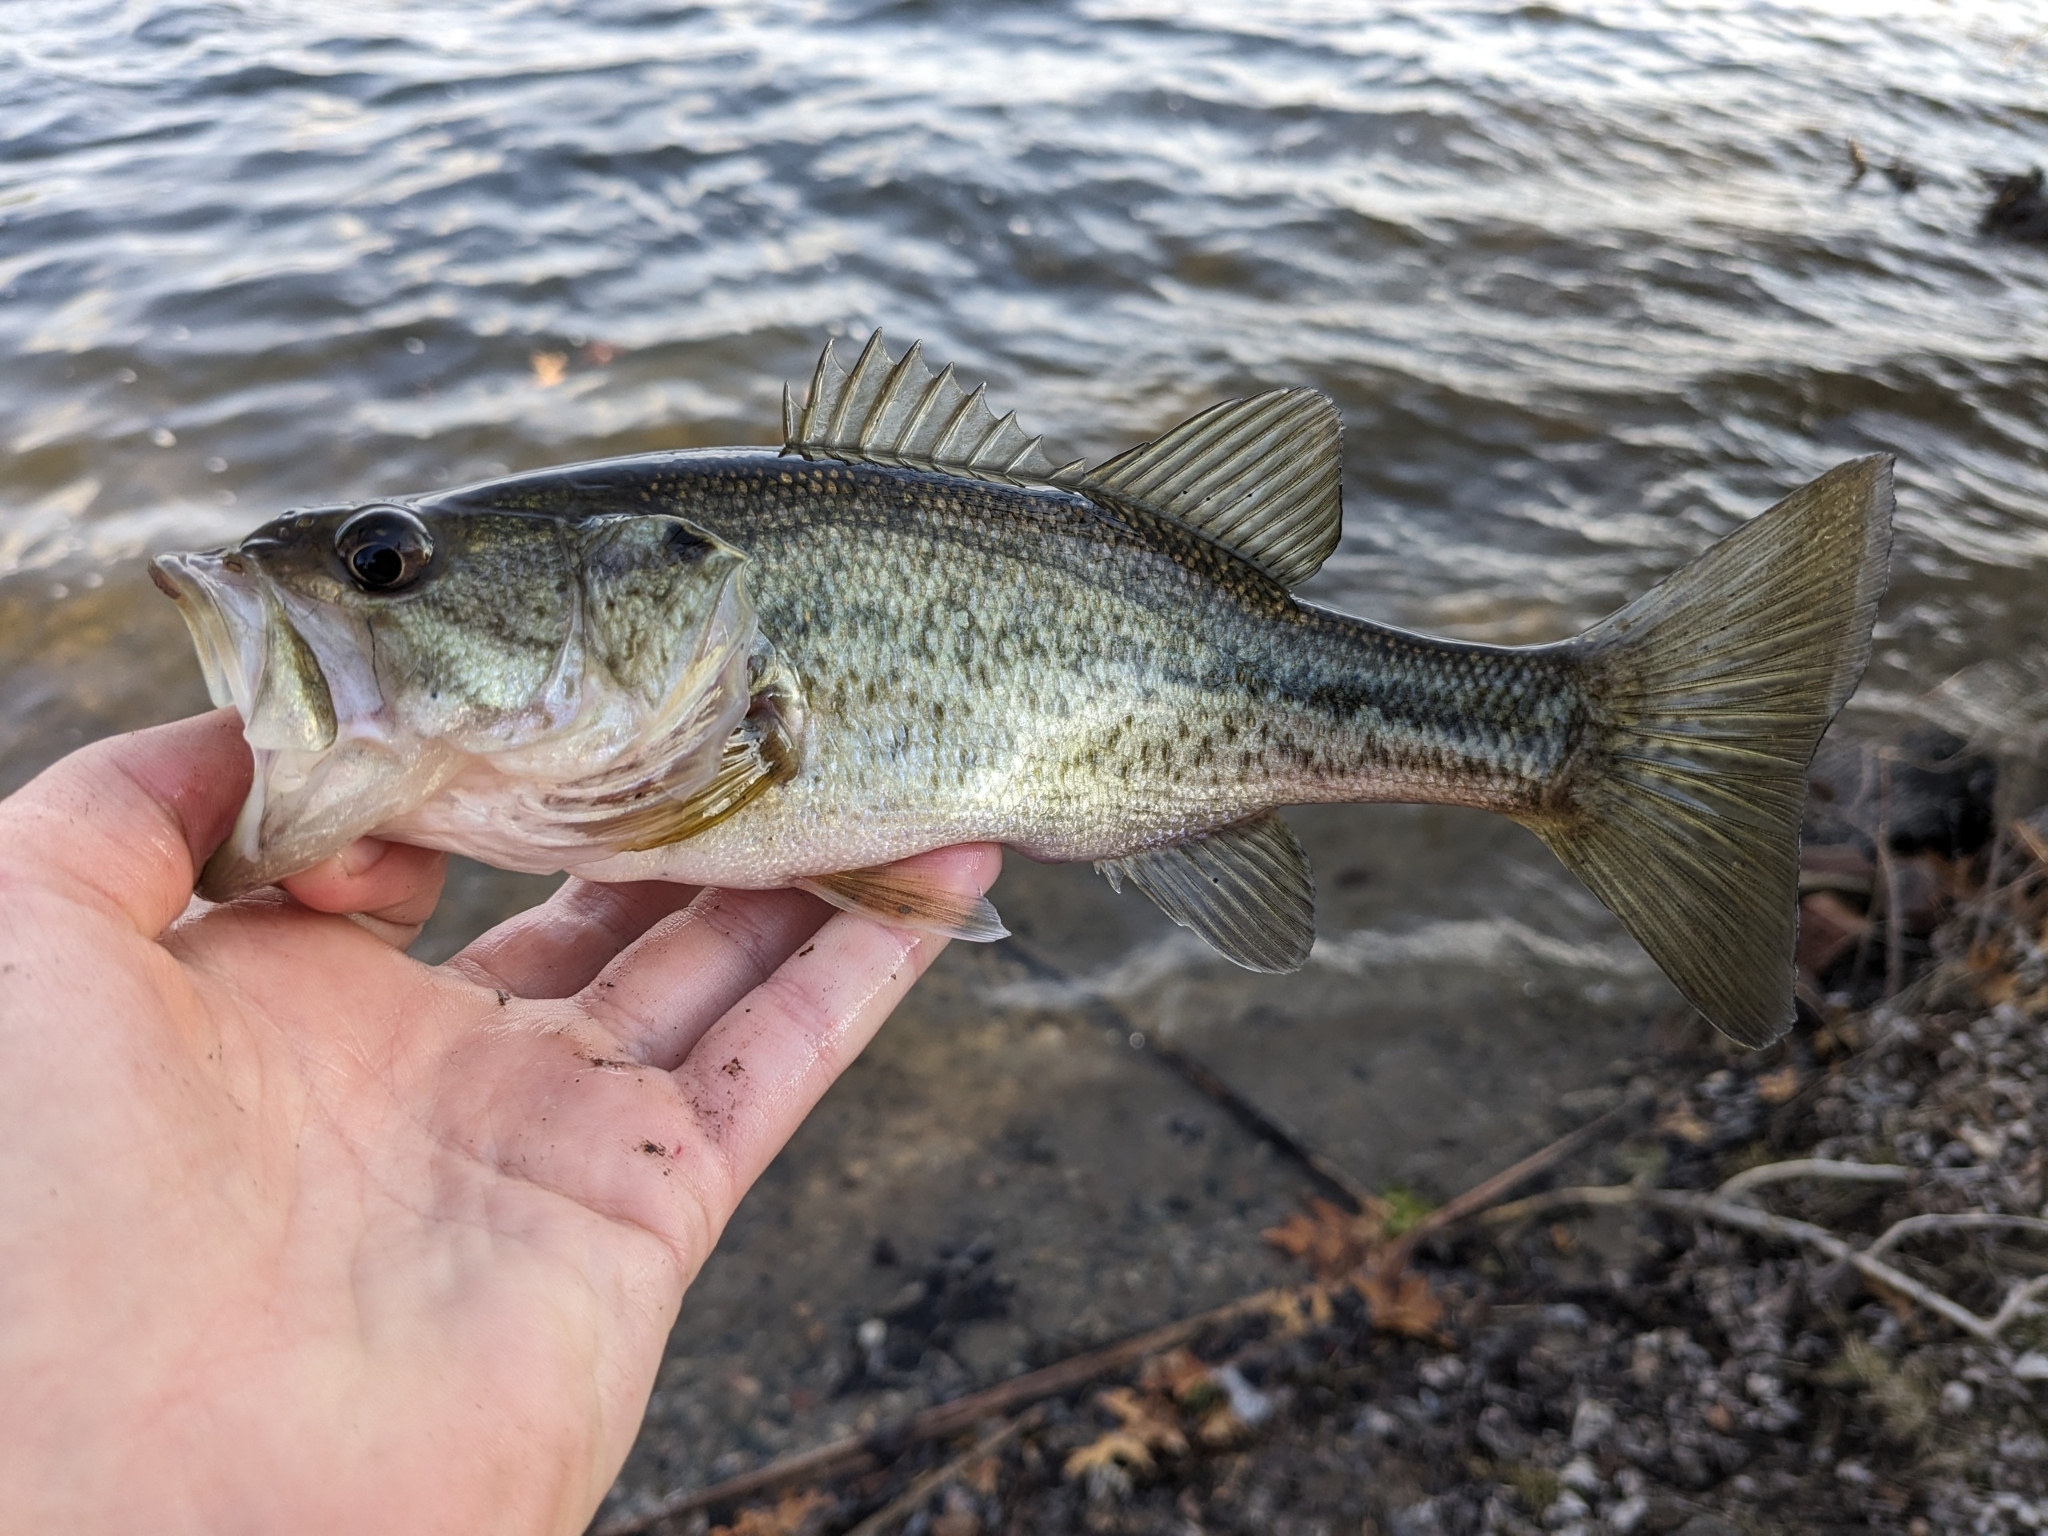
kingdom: Animalia
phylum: Chordata
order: Perciformes
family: Centrarchidae
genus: Micropterus
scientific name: Micropterus
